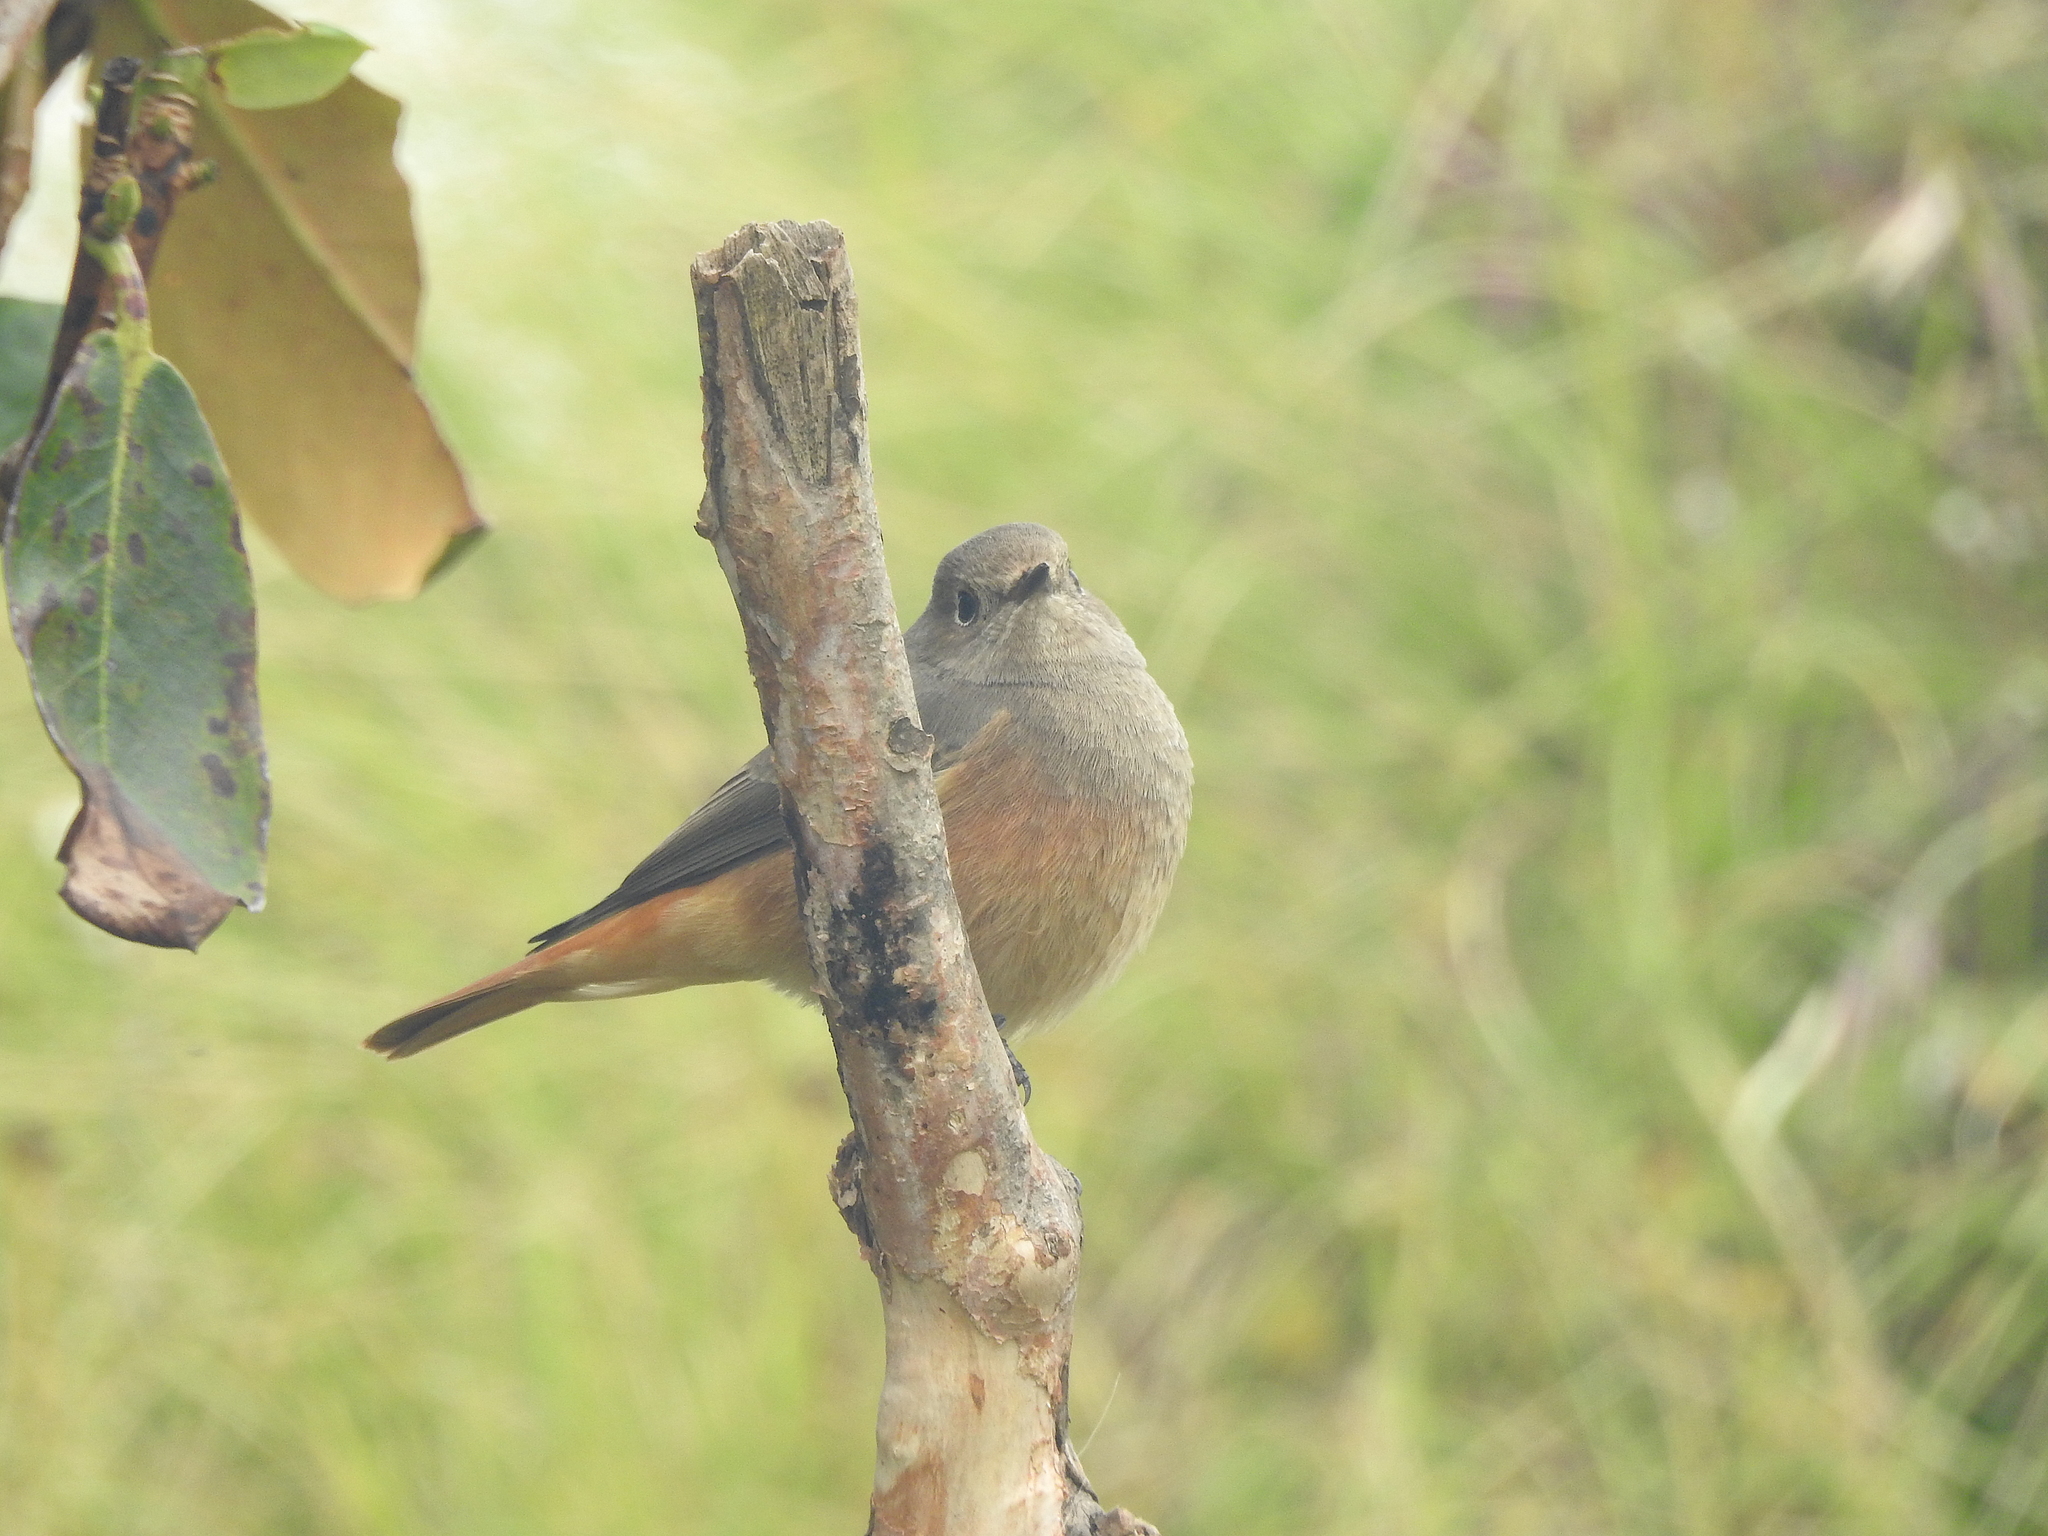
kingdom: Animalia
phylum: Chordata
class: Aves
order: Passeriformes
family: Muscicapidae
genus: Phoenicurus
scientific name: Phoenicurus ochruros
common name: Black redstart
